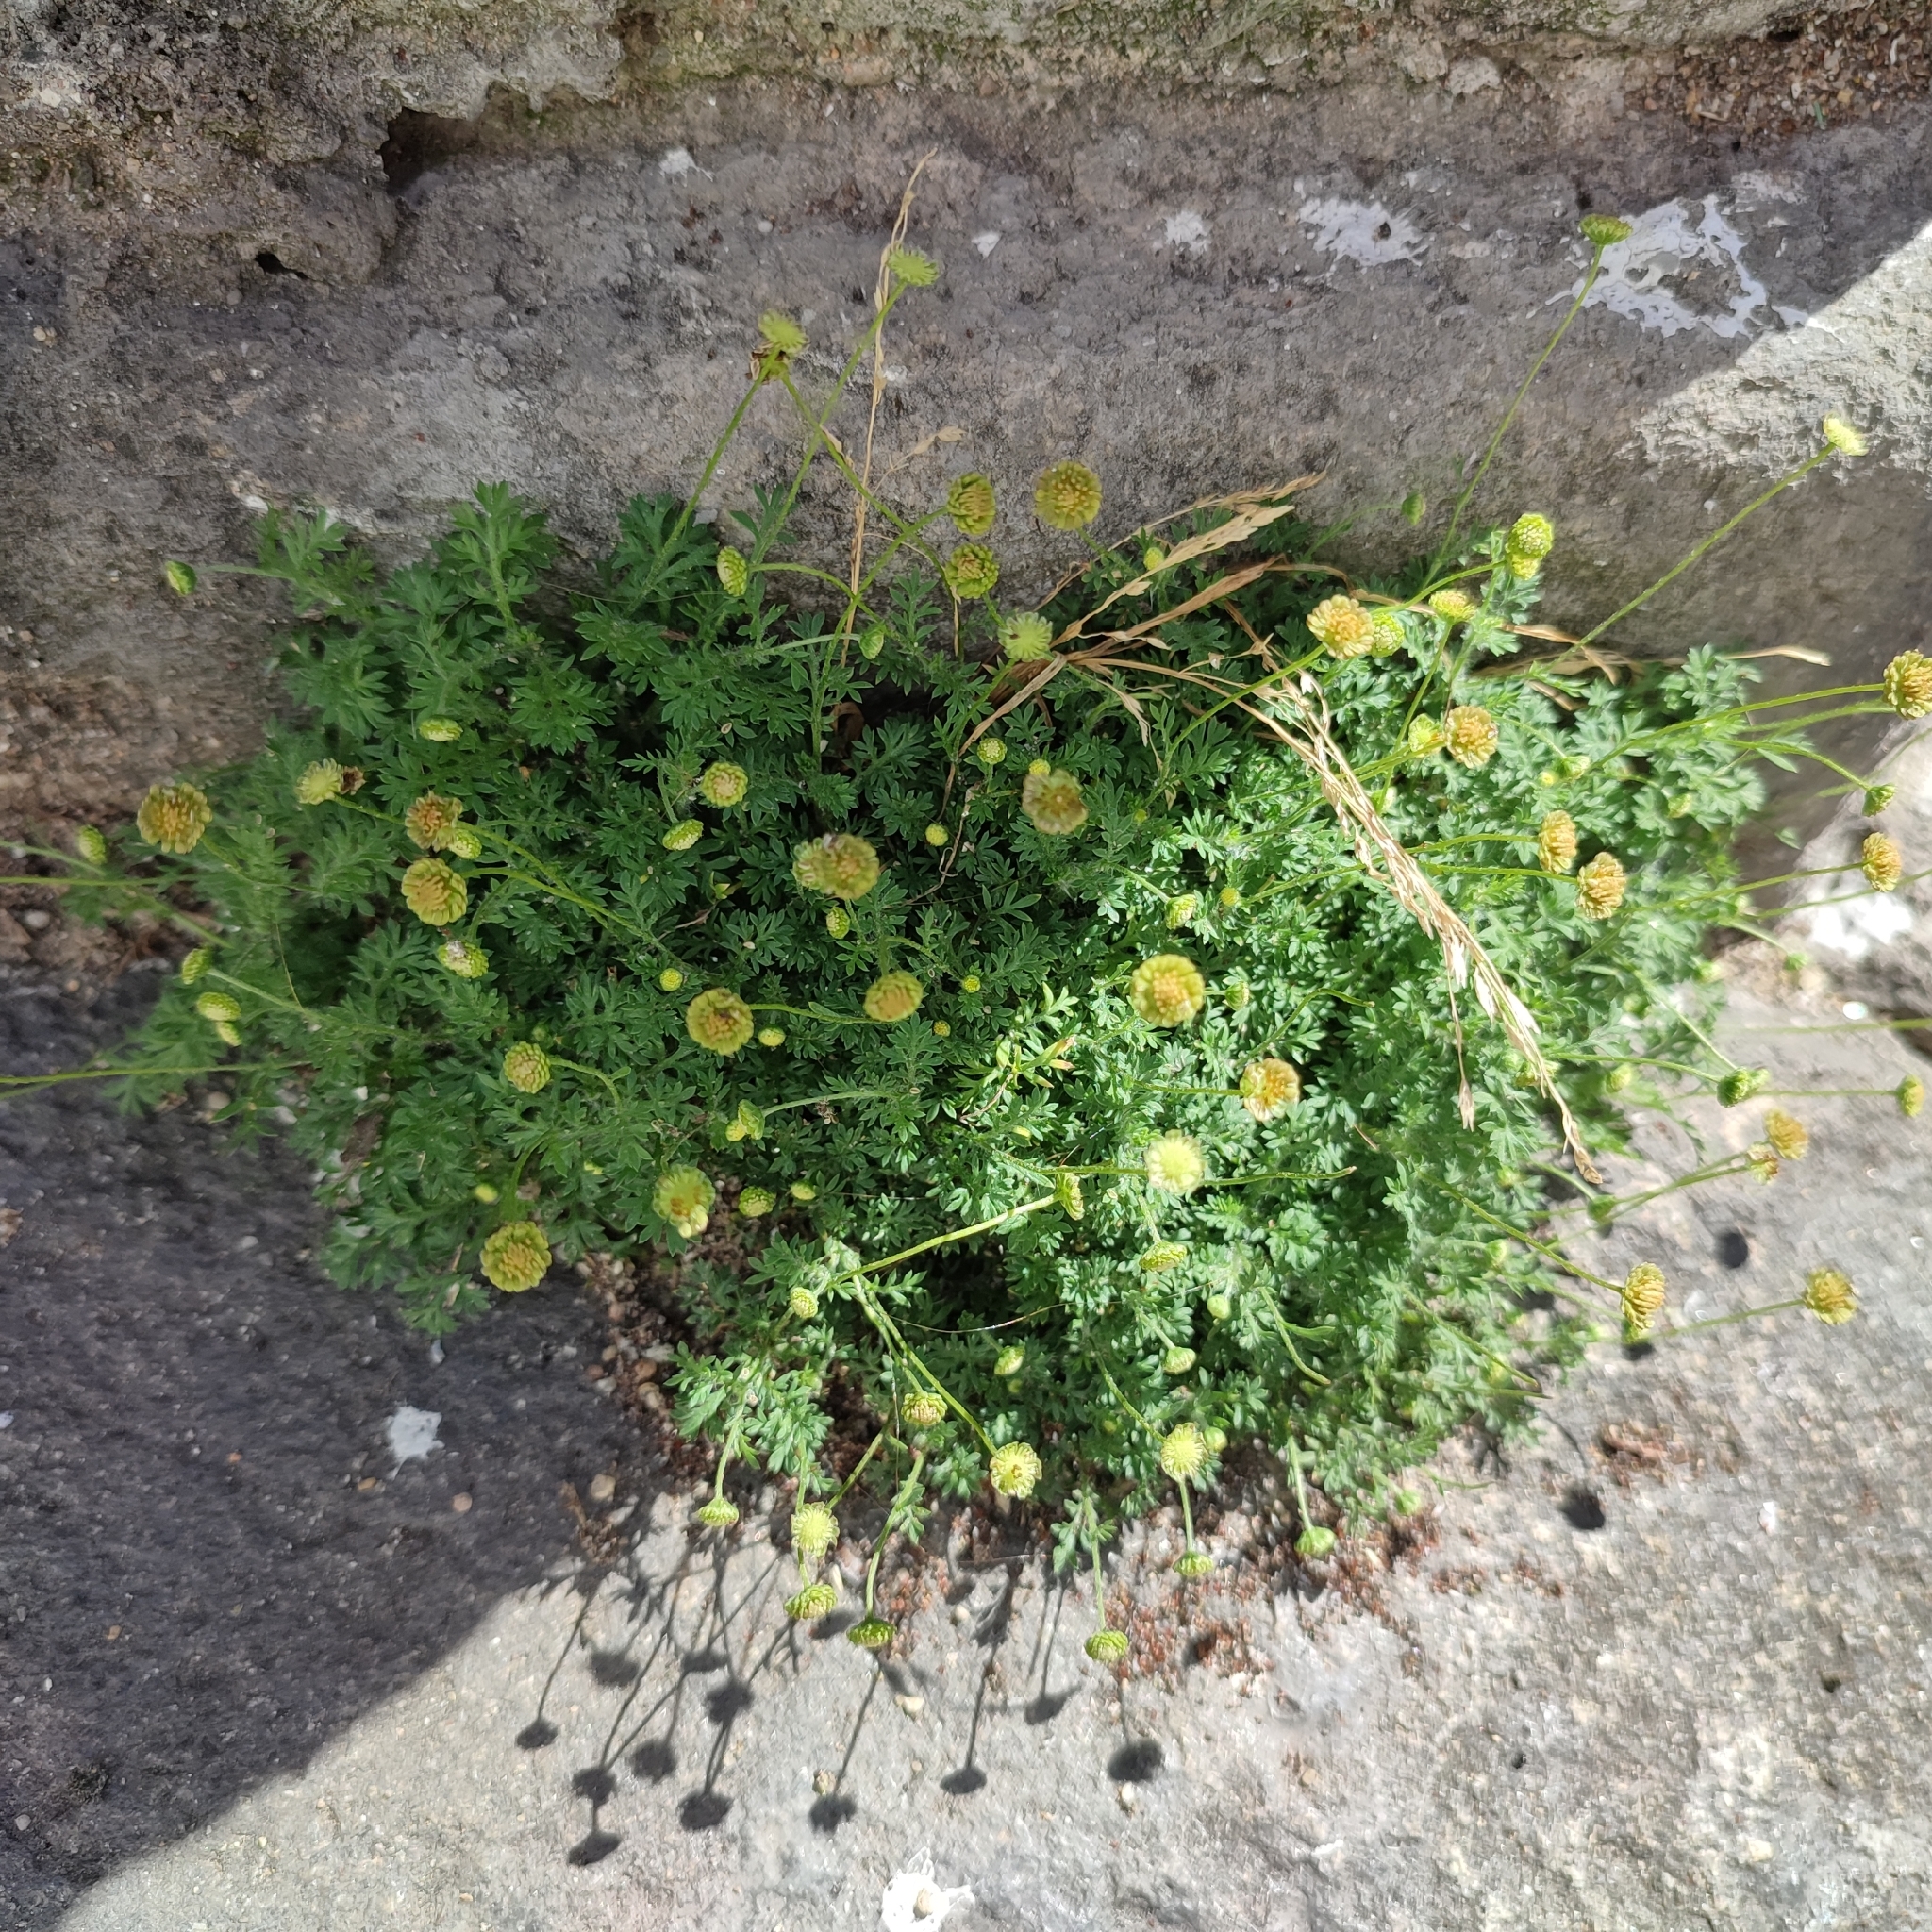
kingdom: Plantae
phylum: Tracheophyta
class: Magnoliopsida
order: Asterales
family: Asteraceae
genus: Cotula
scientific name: Cotula australis
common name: Australian waterbuttons
